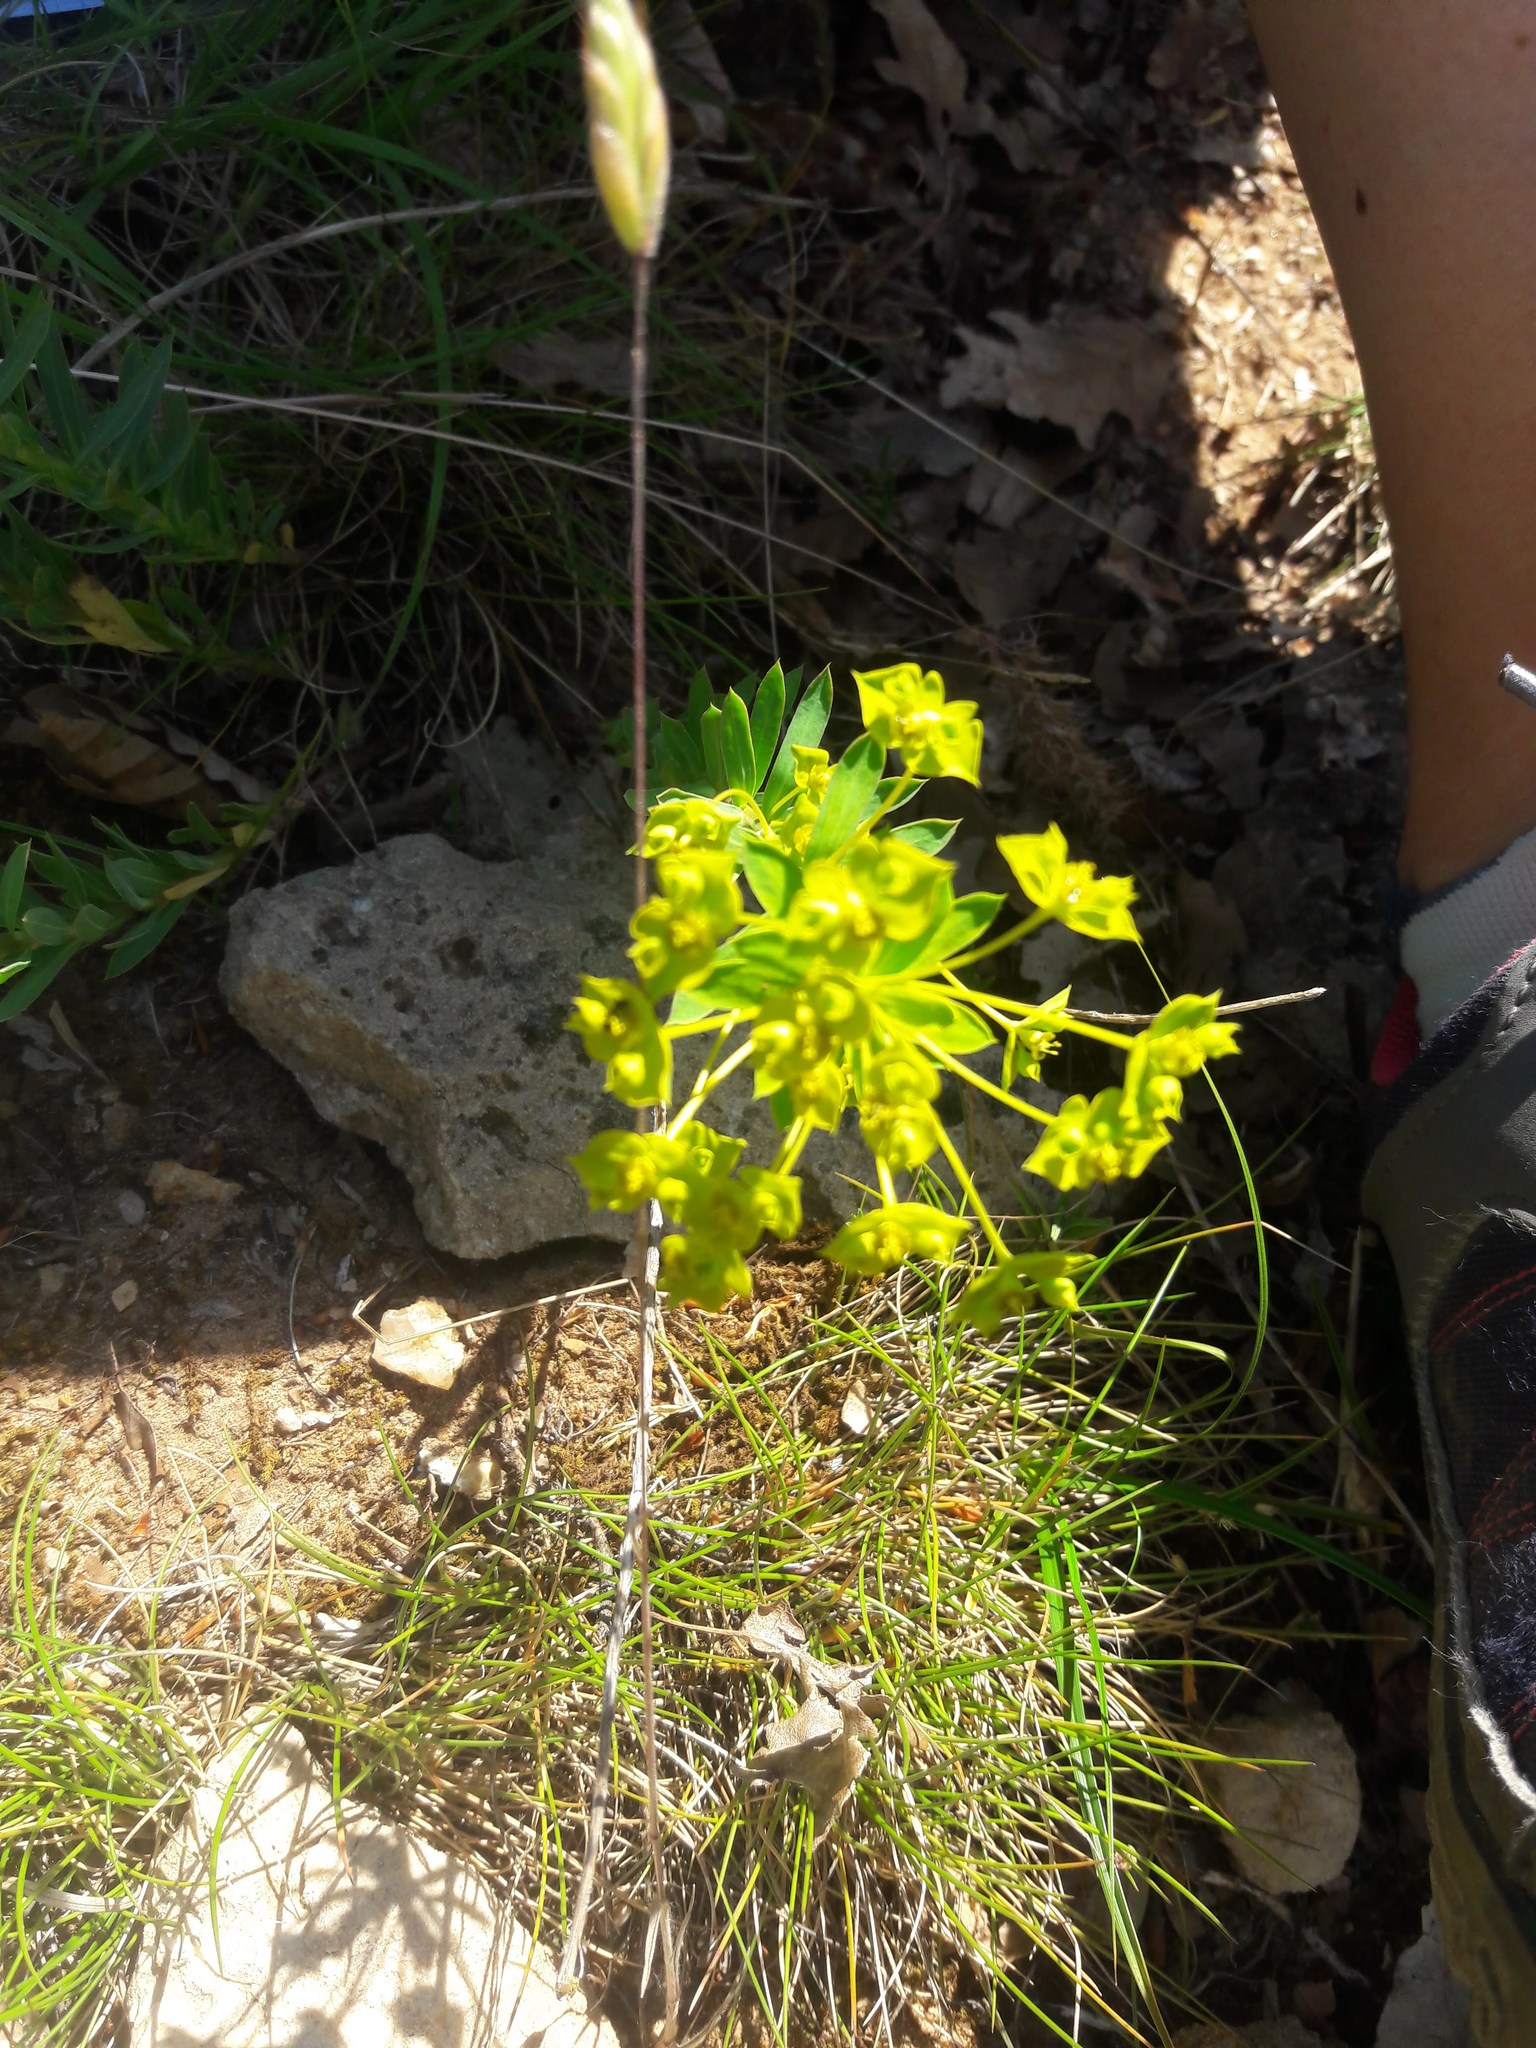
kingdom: Plantae
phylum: Tracheophyta
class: Magnoliopsida
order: Malpighiales
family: Euphorbiaceae
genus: Euphorbia
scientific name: Euphorbia nicaeensis
